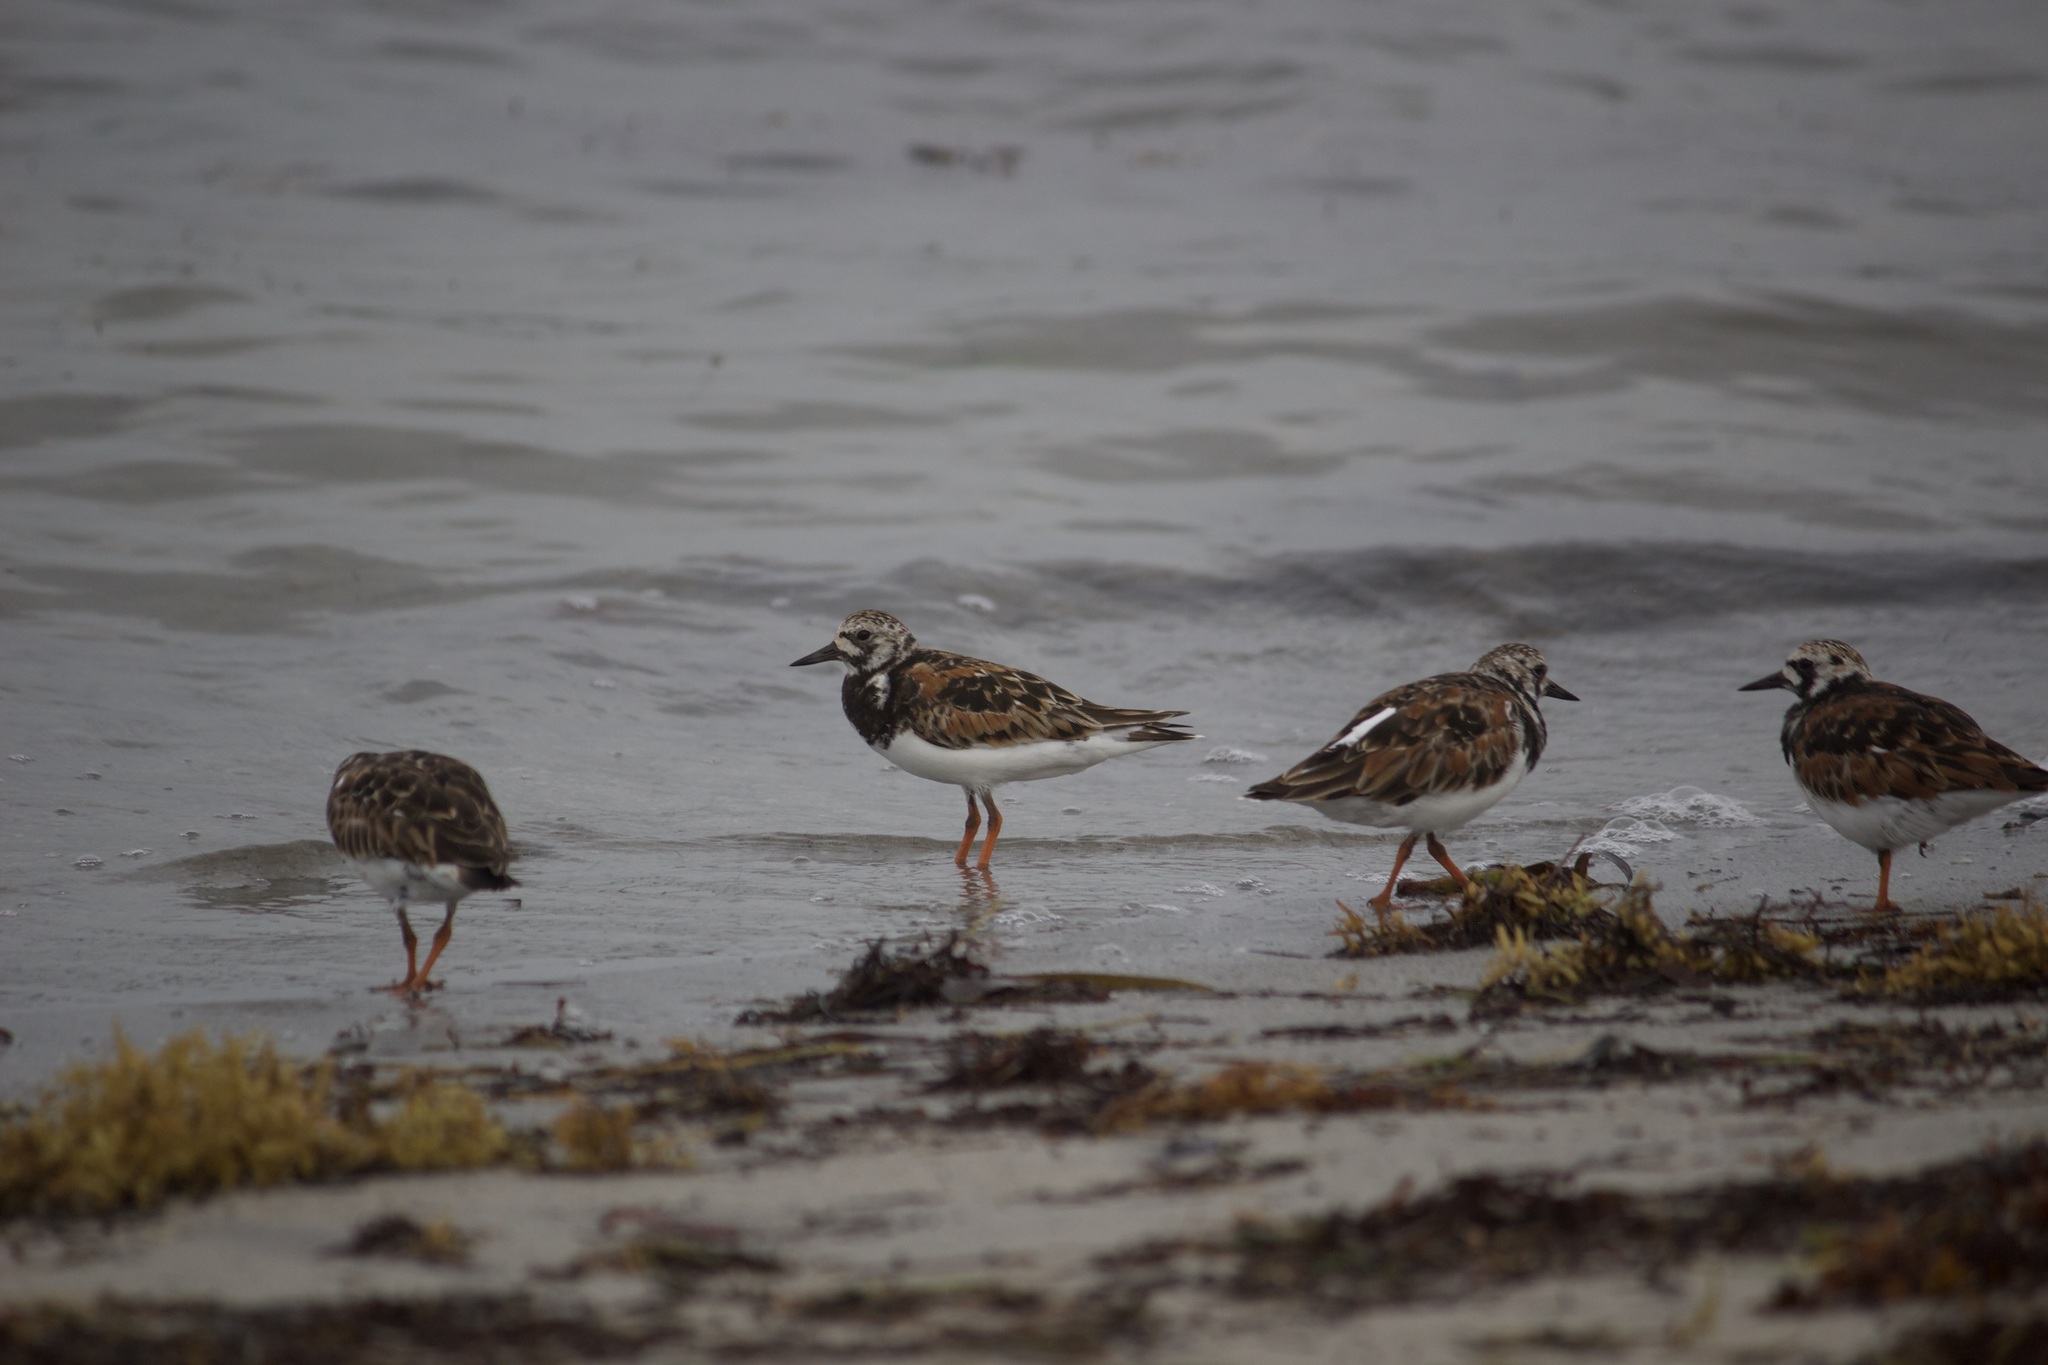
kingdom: Animalia
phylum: Chordata
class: Aves
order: Charadriiformes
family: Scolopacidae
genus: Arenaria
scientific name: Arenaria interpres
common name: Ruddy turnstone
